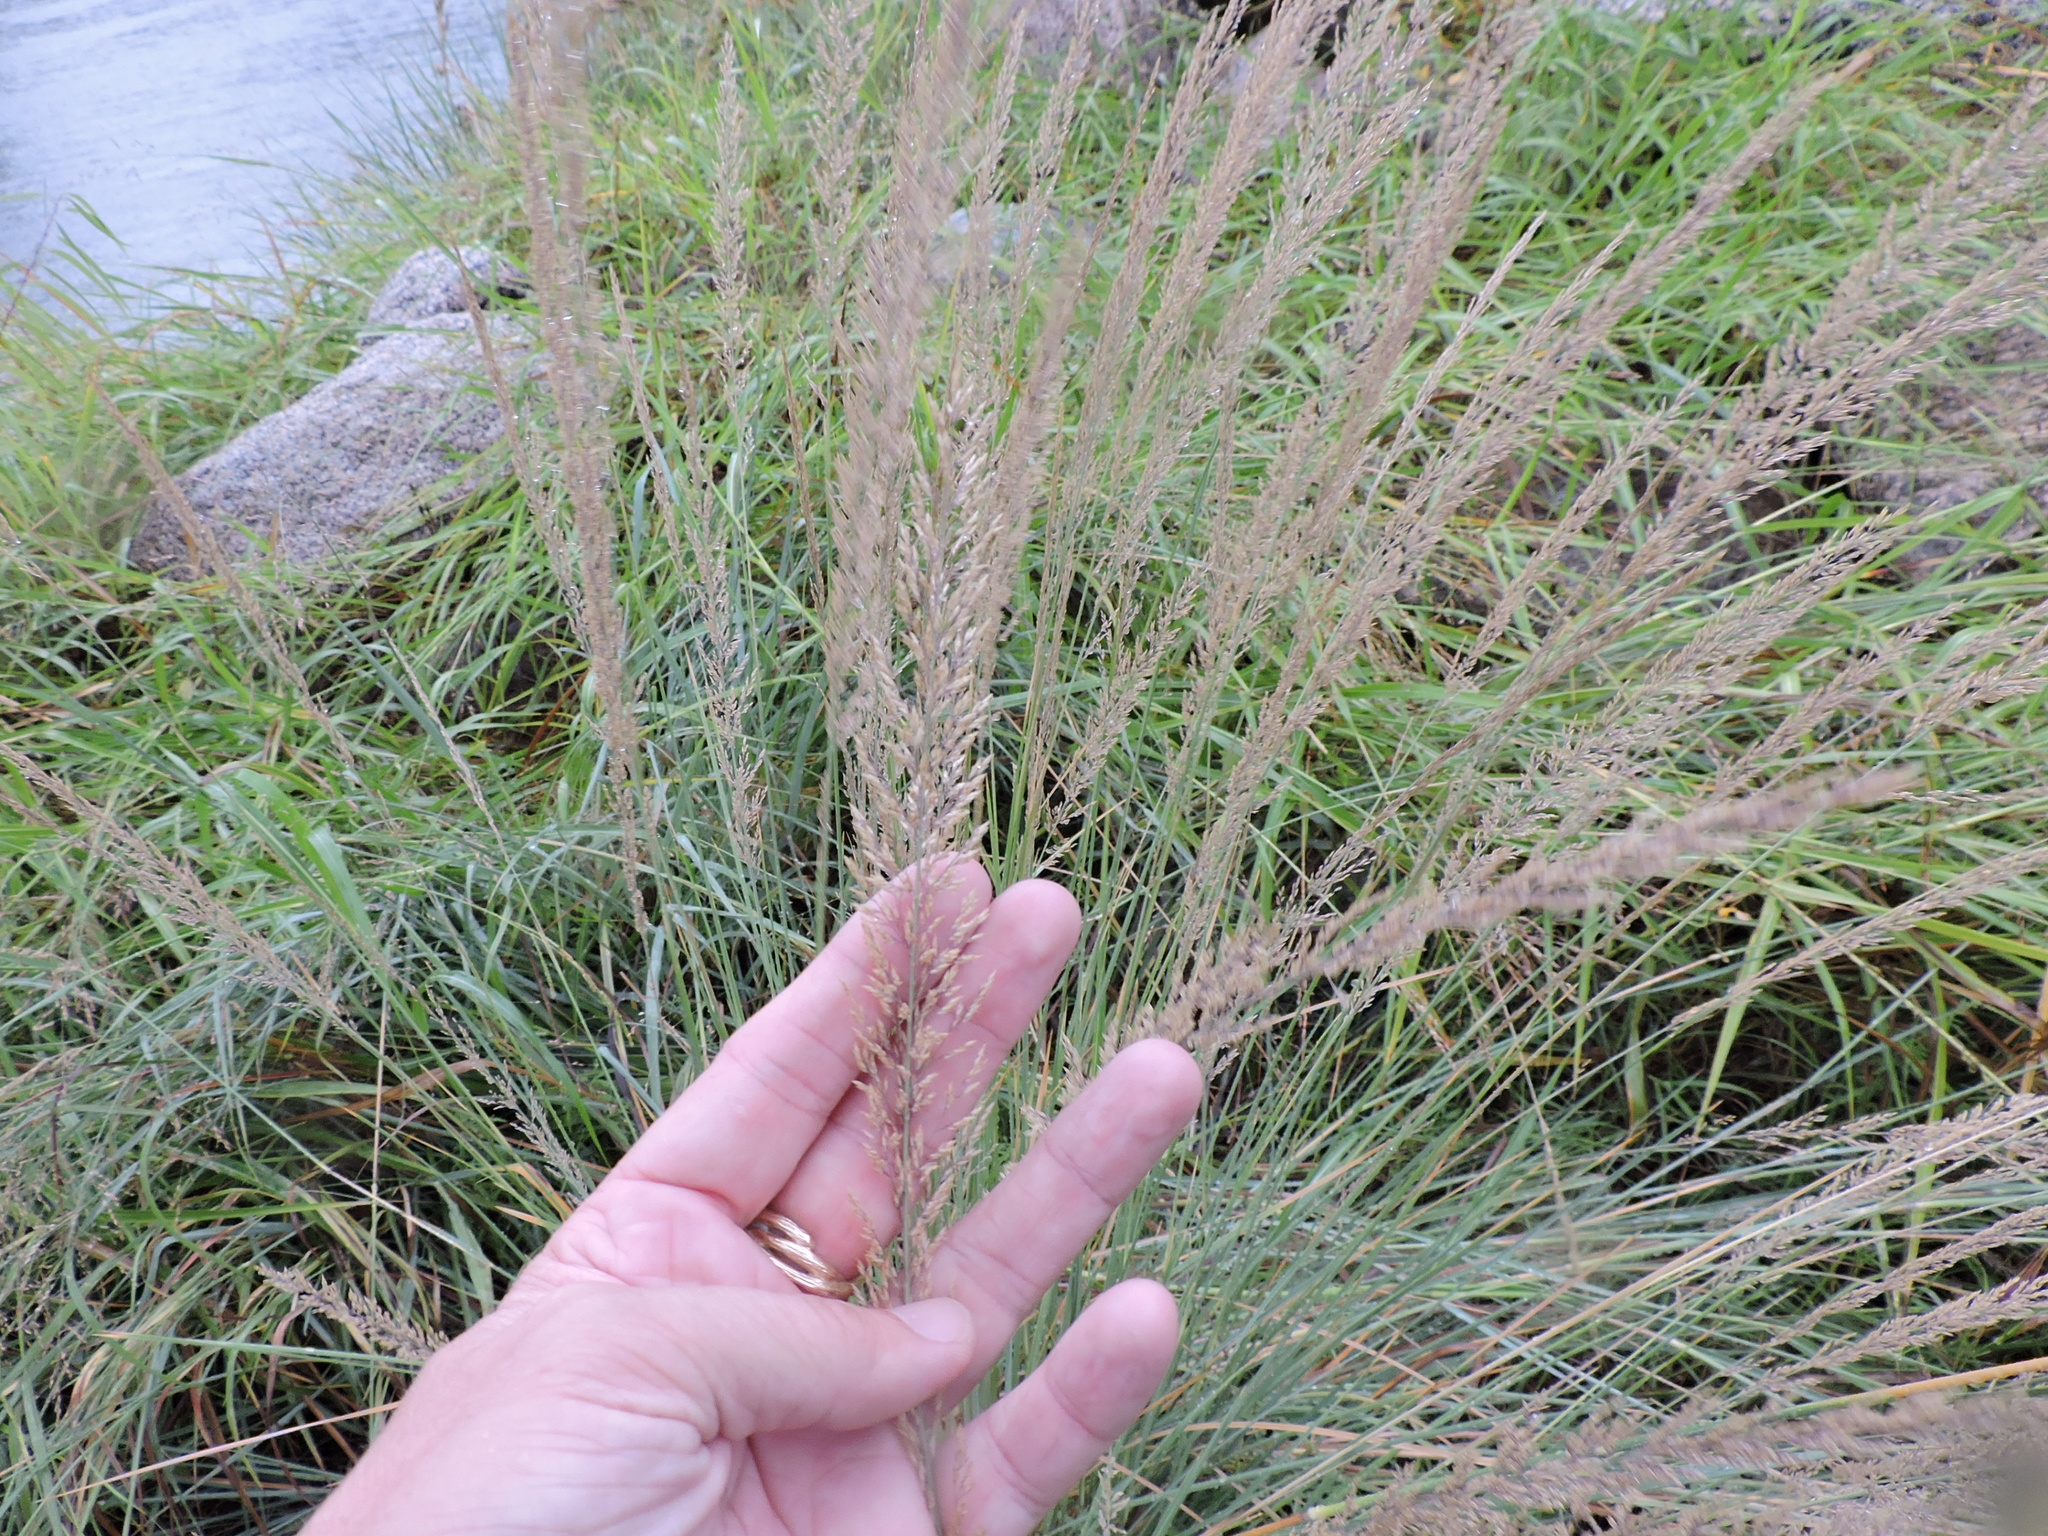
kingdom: Plantae
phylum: Tracheophyta
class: Liliopsida
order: Poales
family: Poaceae
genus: Muhlenbergia
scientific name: Muhlenbergia lindheimeri
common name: Lindheimer's muhly
